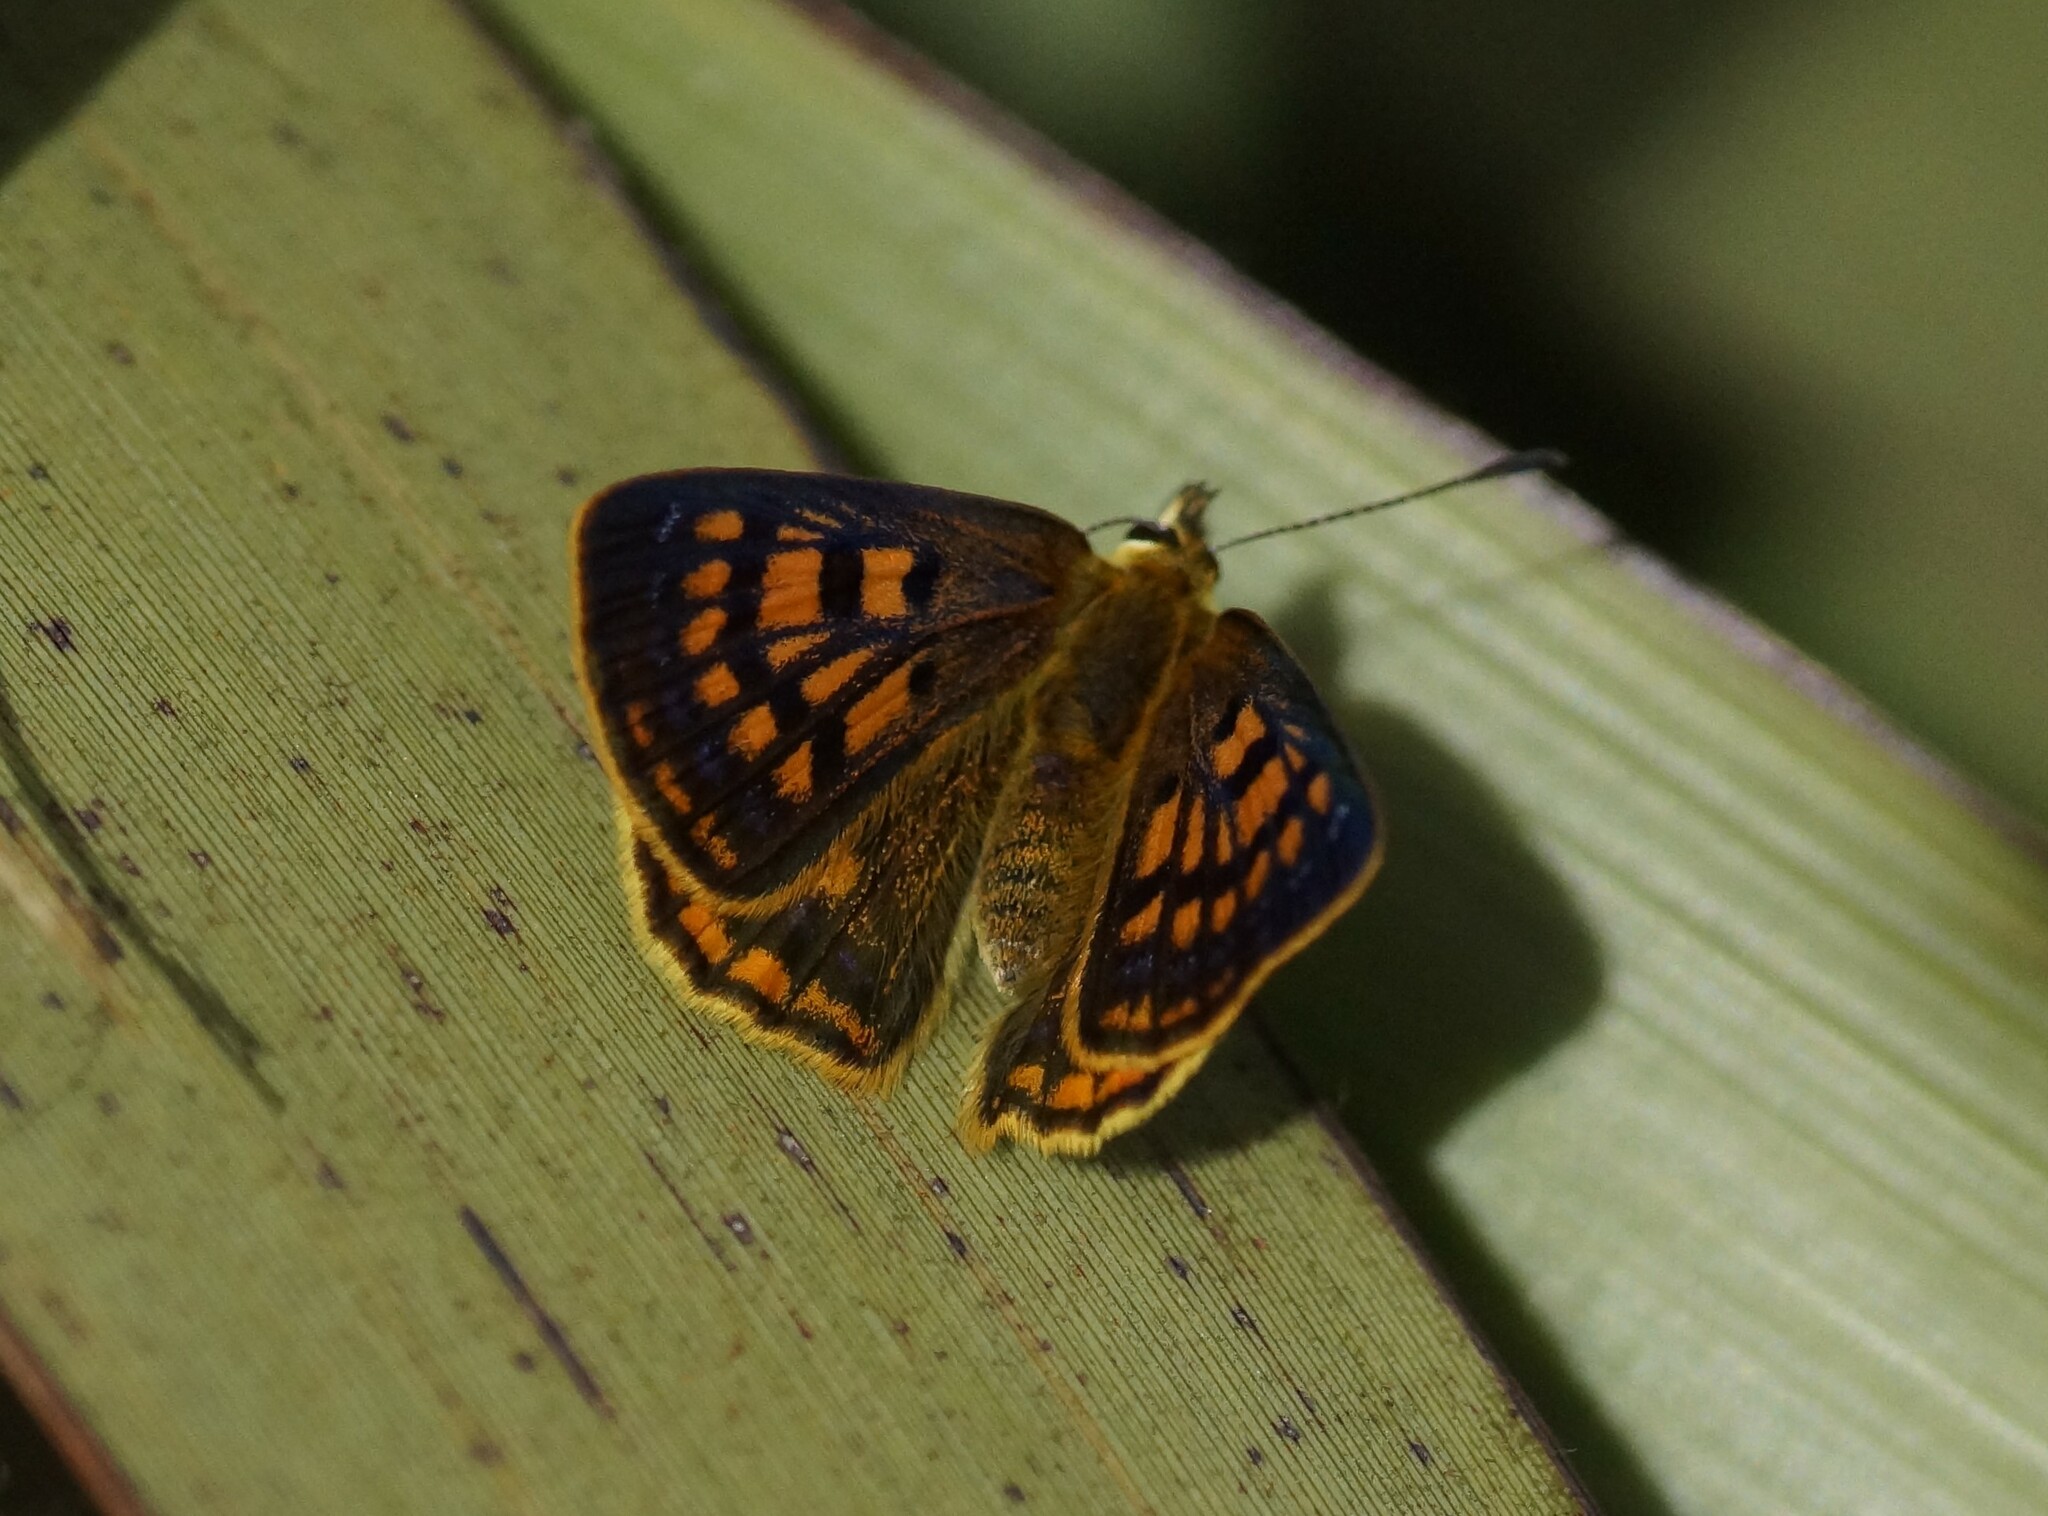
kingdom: Animalia
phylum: Arthropoda
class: Insecta
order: Lepidoptera
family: Lycaenidae
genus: Lycaena
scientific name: Lycaena
